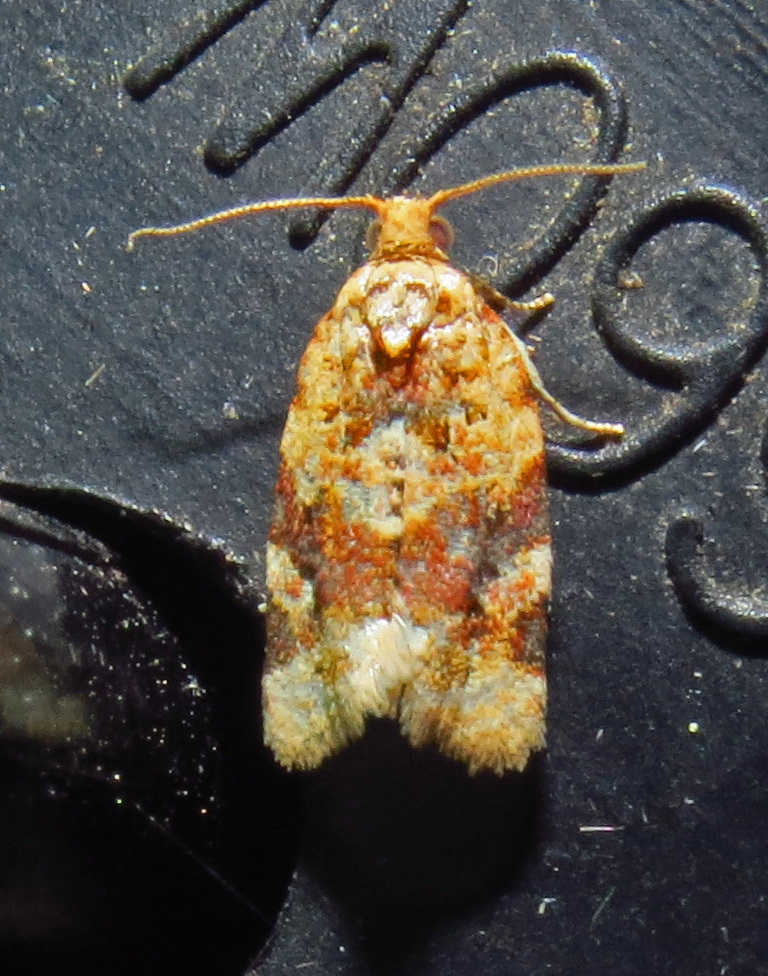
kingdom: Animalia
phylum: Arthropoda
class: Insecta
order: Lepidoptera
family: Tortricidae
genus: Argyrotaenia
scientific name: Argyrotaenia velutinana
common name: Red-banded leafroller moth
